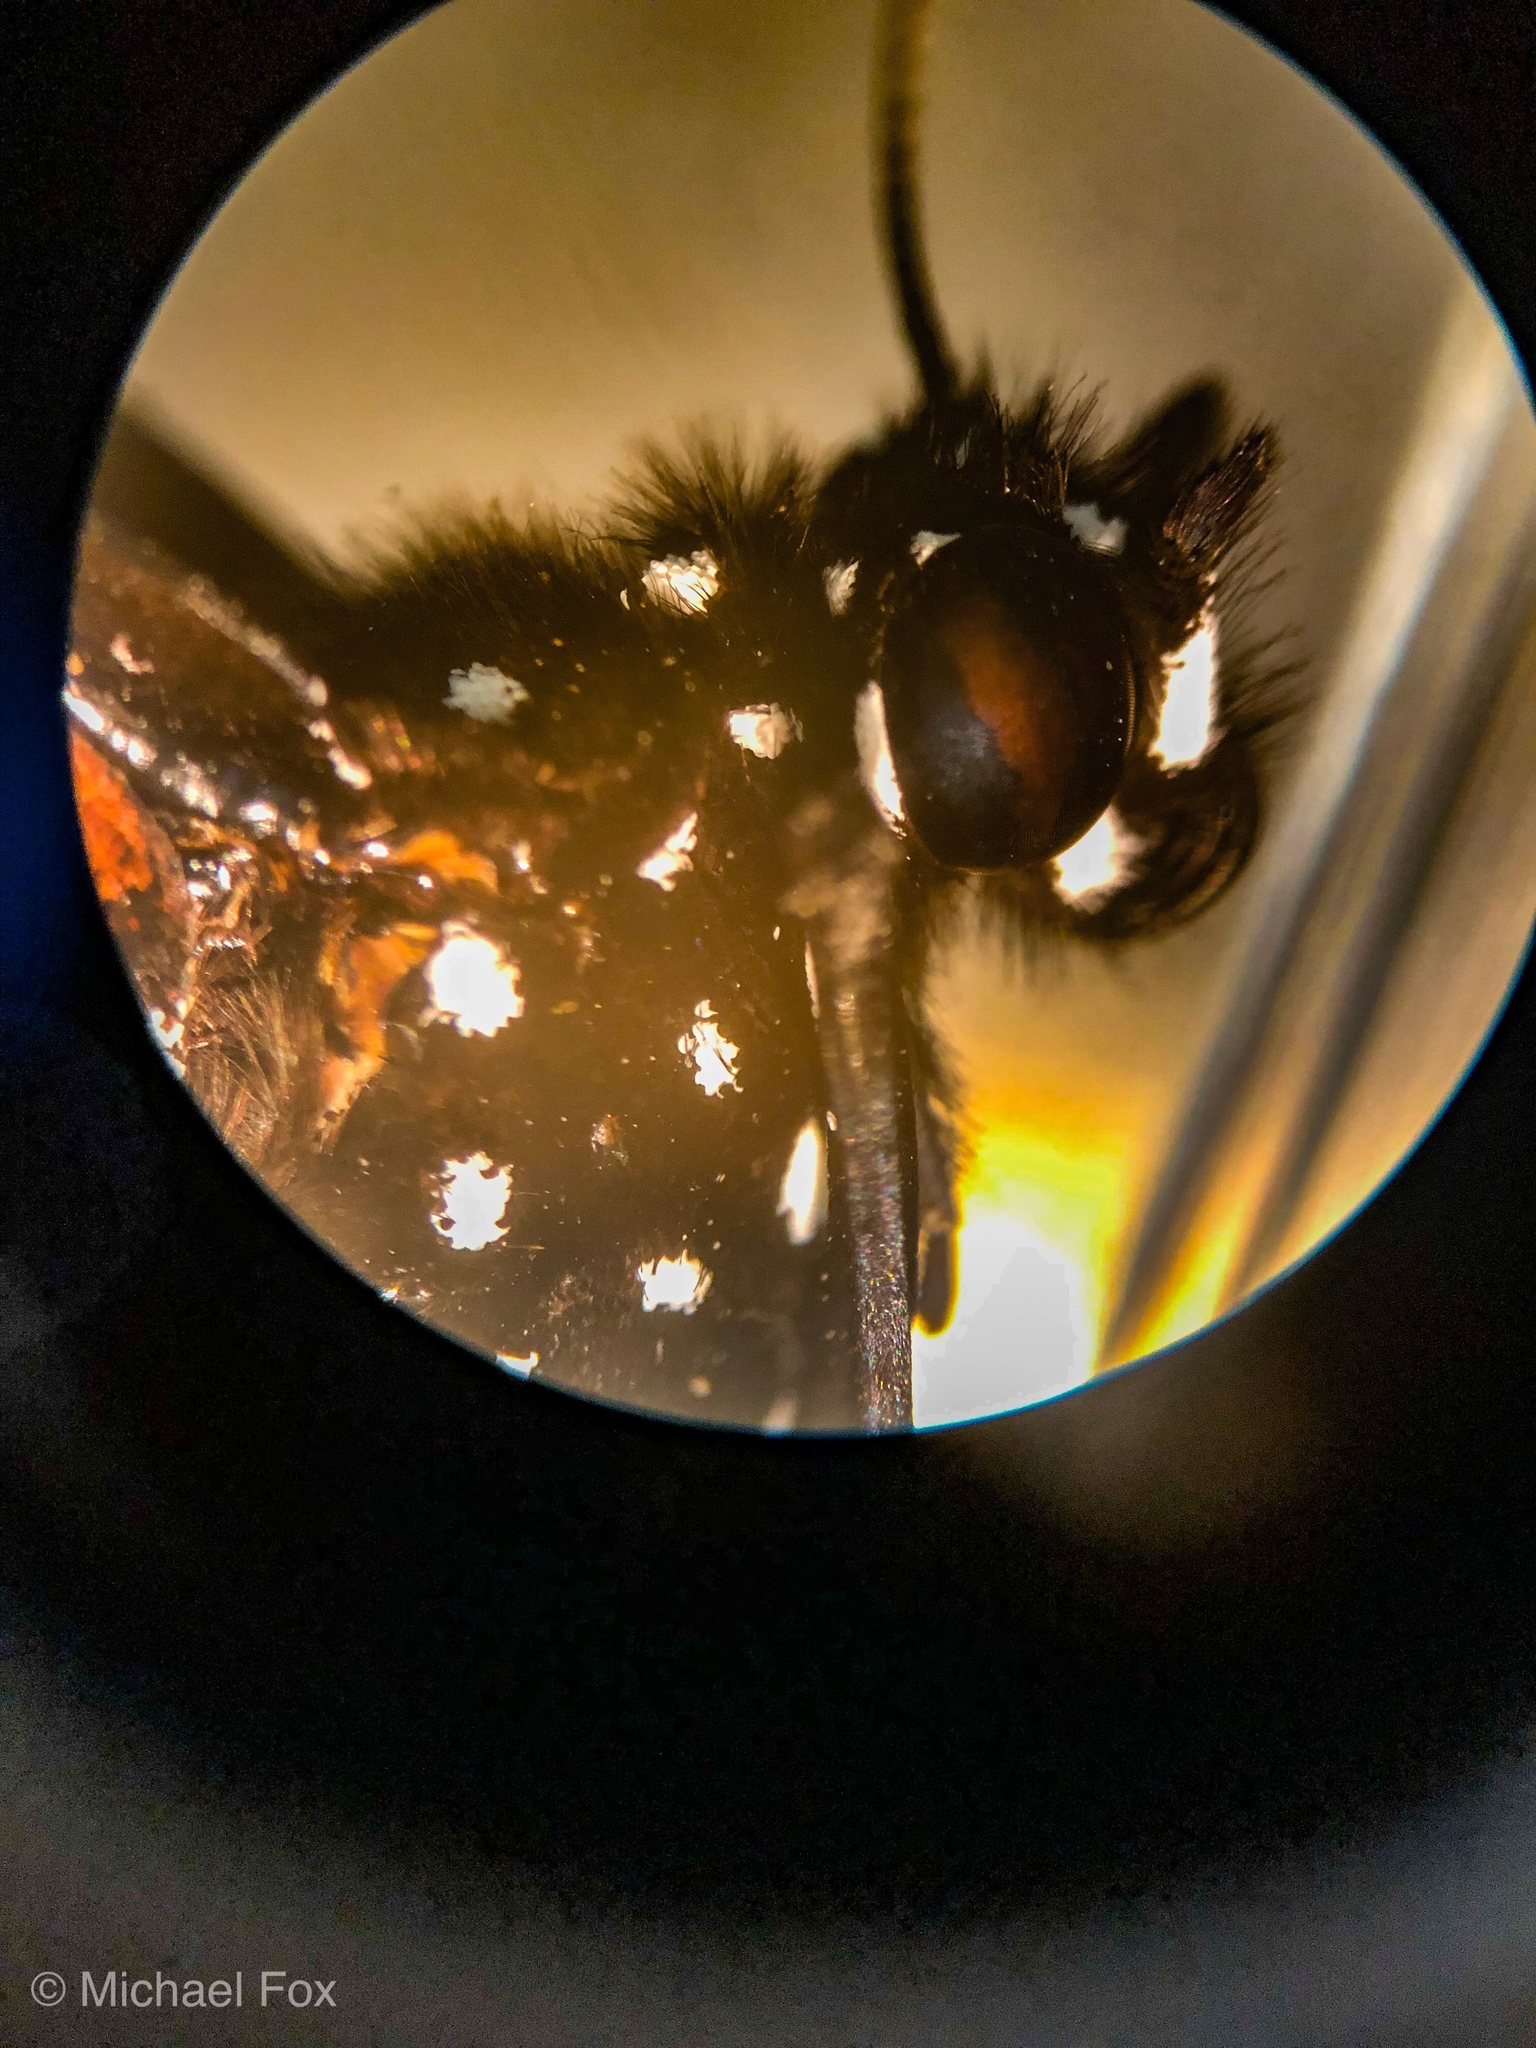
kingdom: Animalia
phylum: Arthropoda
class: Insecta
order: Lepidoptera
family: Nymphalidae
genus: Danaus
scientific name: Danaus gilippus
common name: Queen
